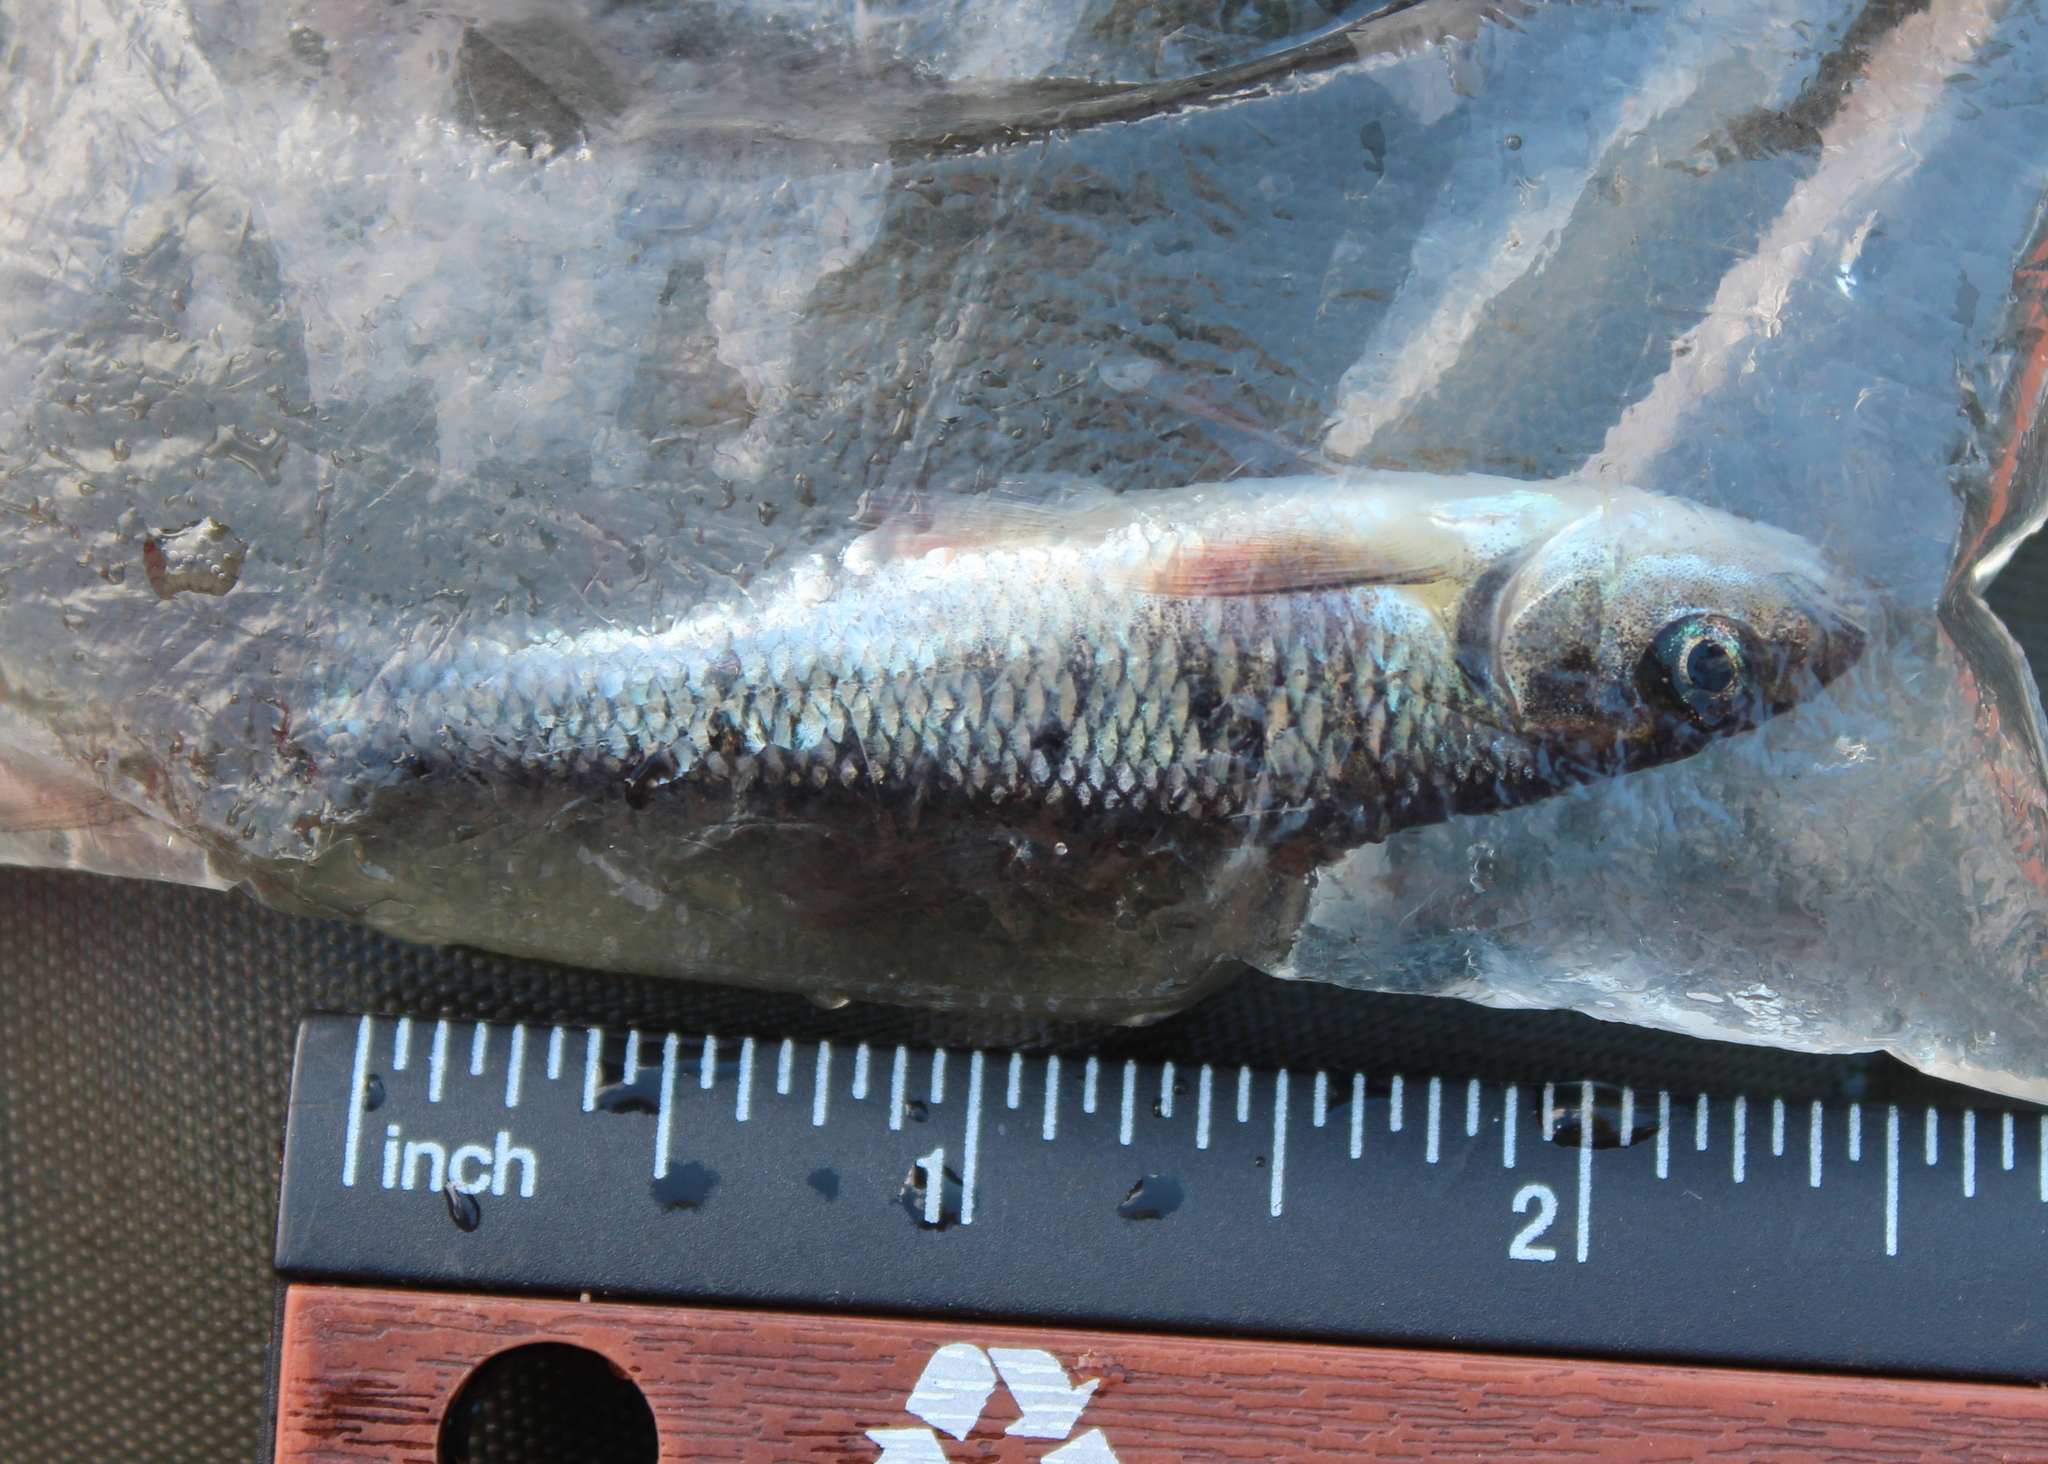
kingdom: Animalia
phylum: Chordata
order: Cypriniformes
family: Cyprinidae
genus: Luxilus
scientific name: Luxilus cornutus
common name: Common shiner
